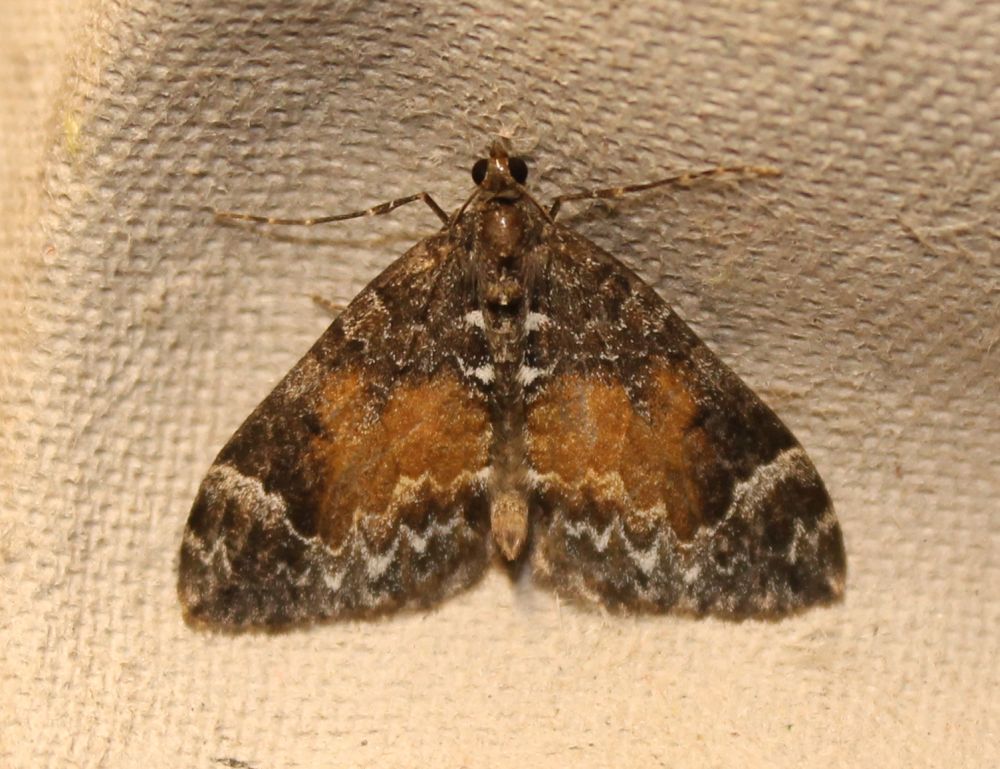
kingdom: Animalia
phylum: Arthropoda
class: Insecta
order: Lepidoptera
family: Geometridae
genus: Dysstroma
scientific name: Dysstroma truncata
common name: Common marbled carpet
